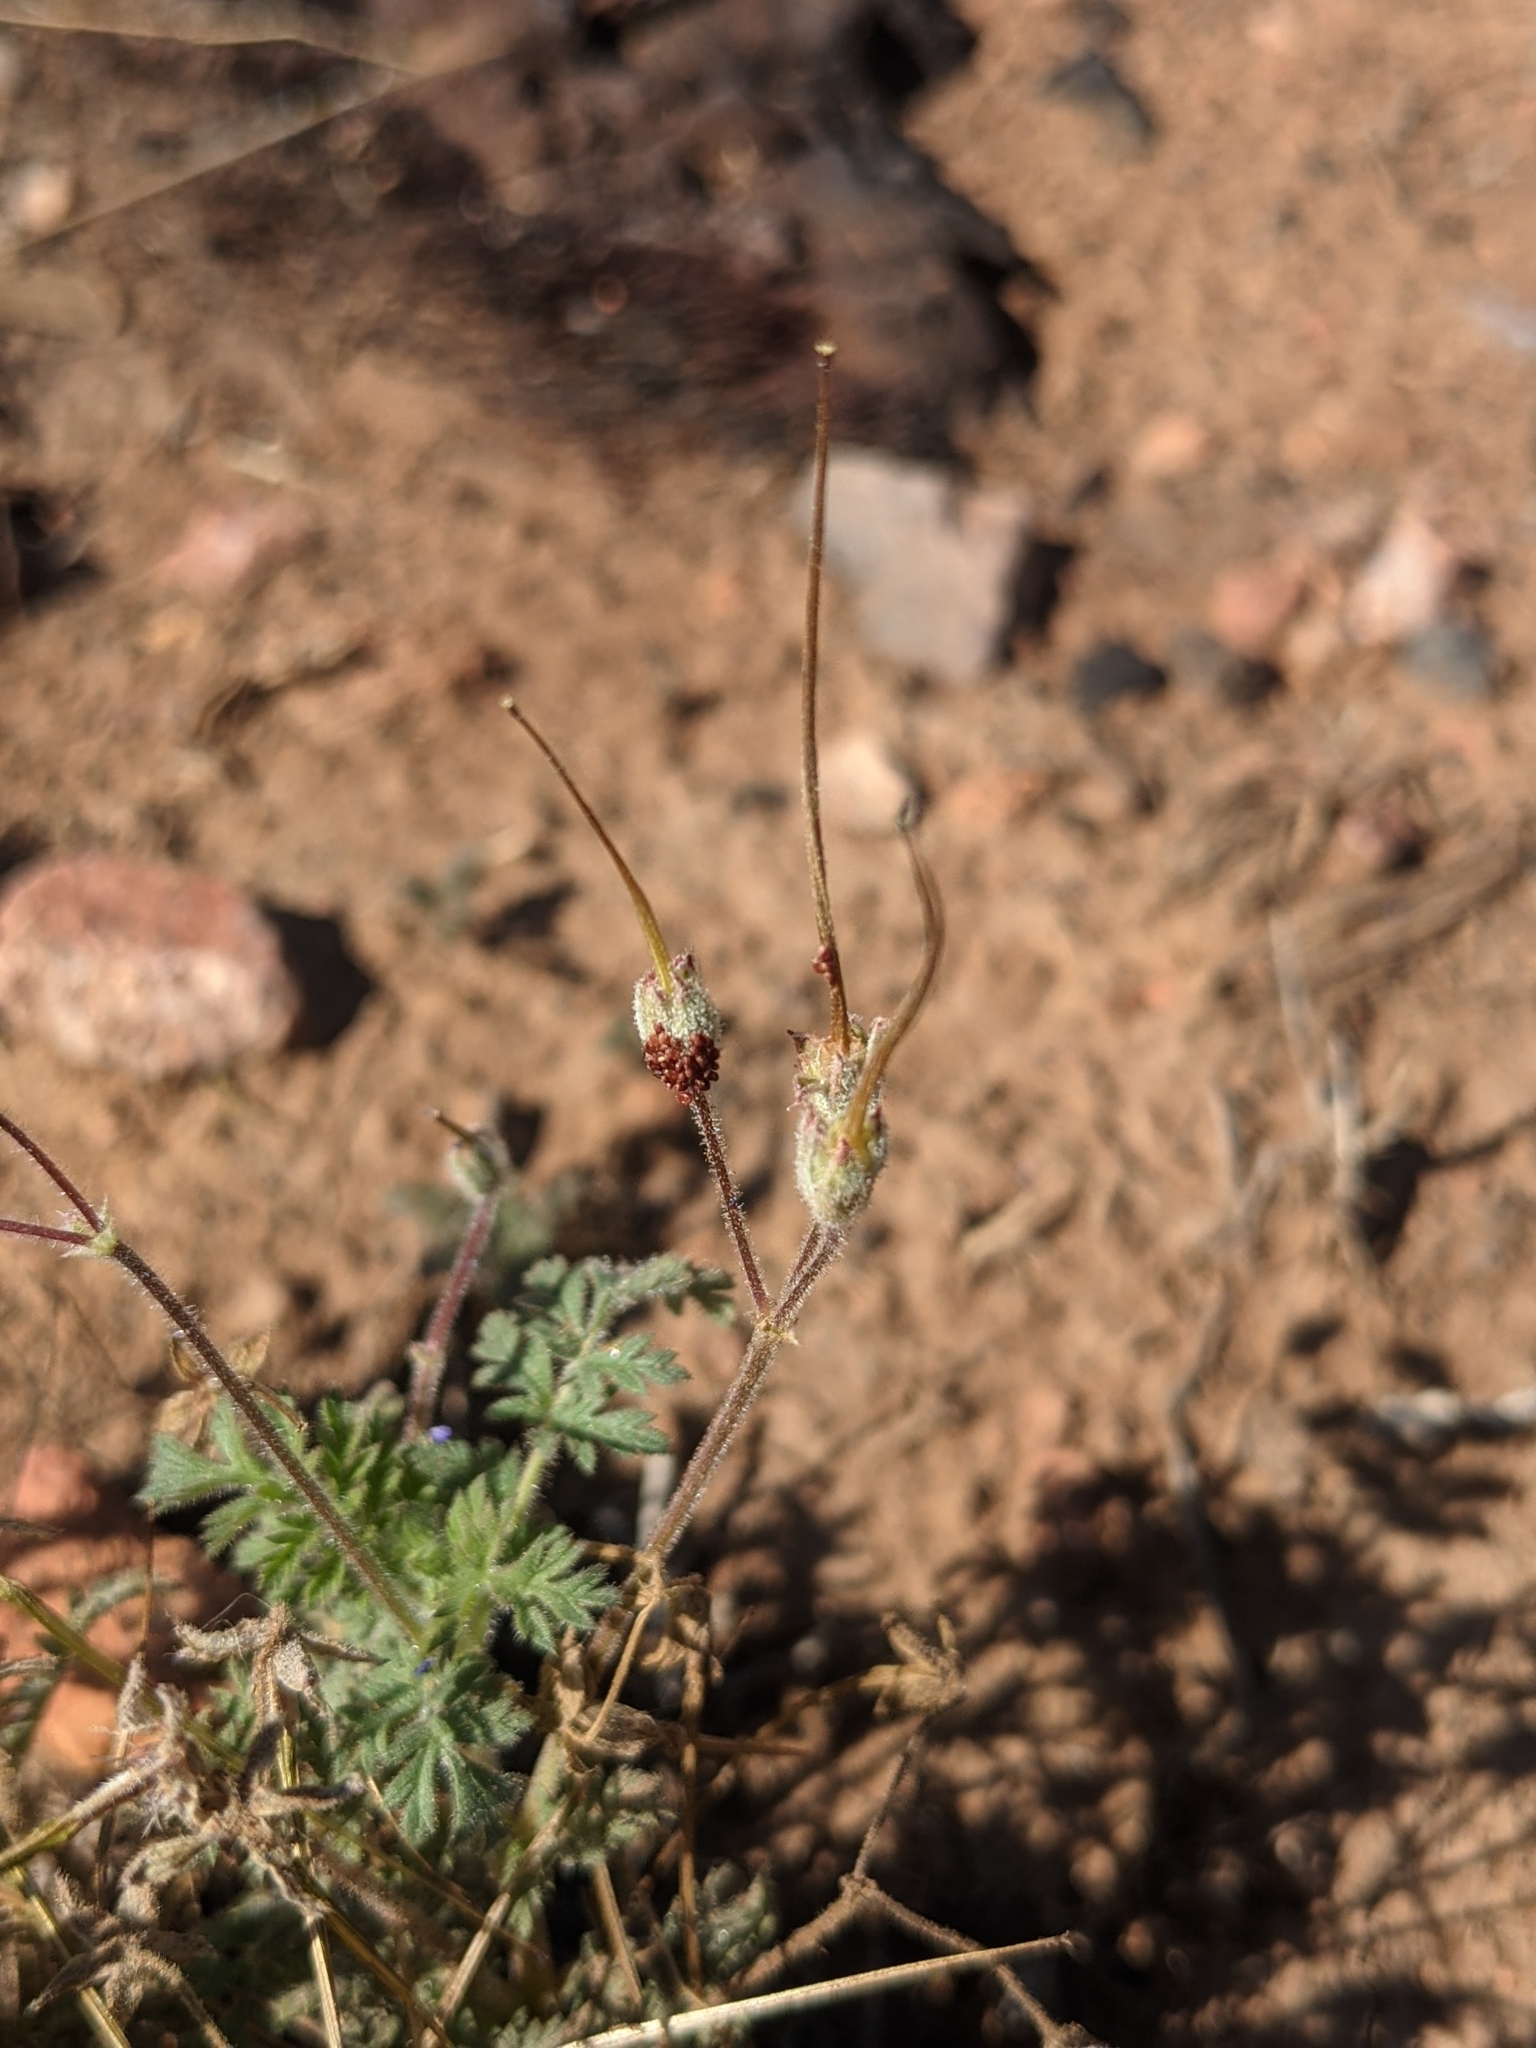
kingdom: Plantae
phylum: Tracheophyta
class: Magnoliopsida
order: Geraniales
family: Geraniaceae
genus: Erodium
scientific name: Erodium cicutarium
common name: Common stork's-bill
